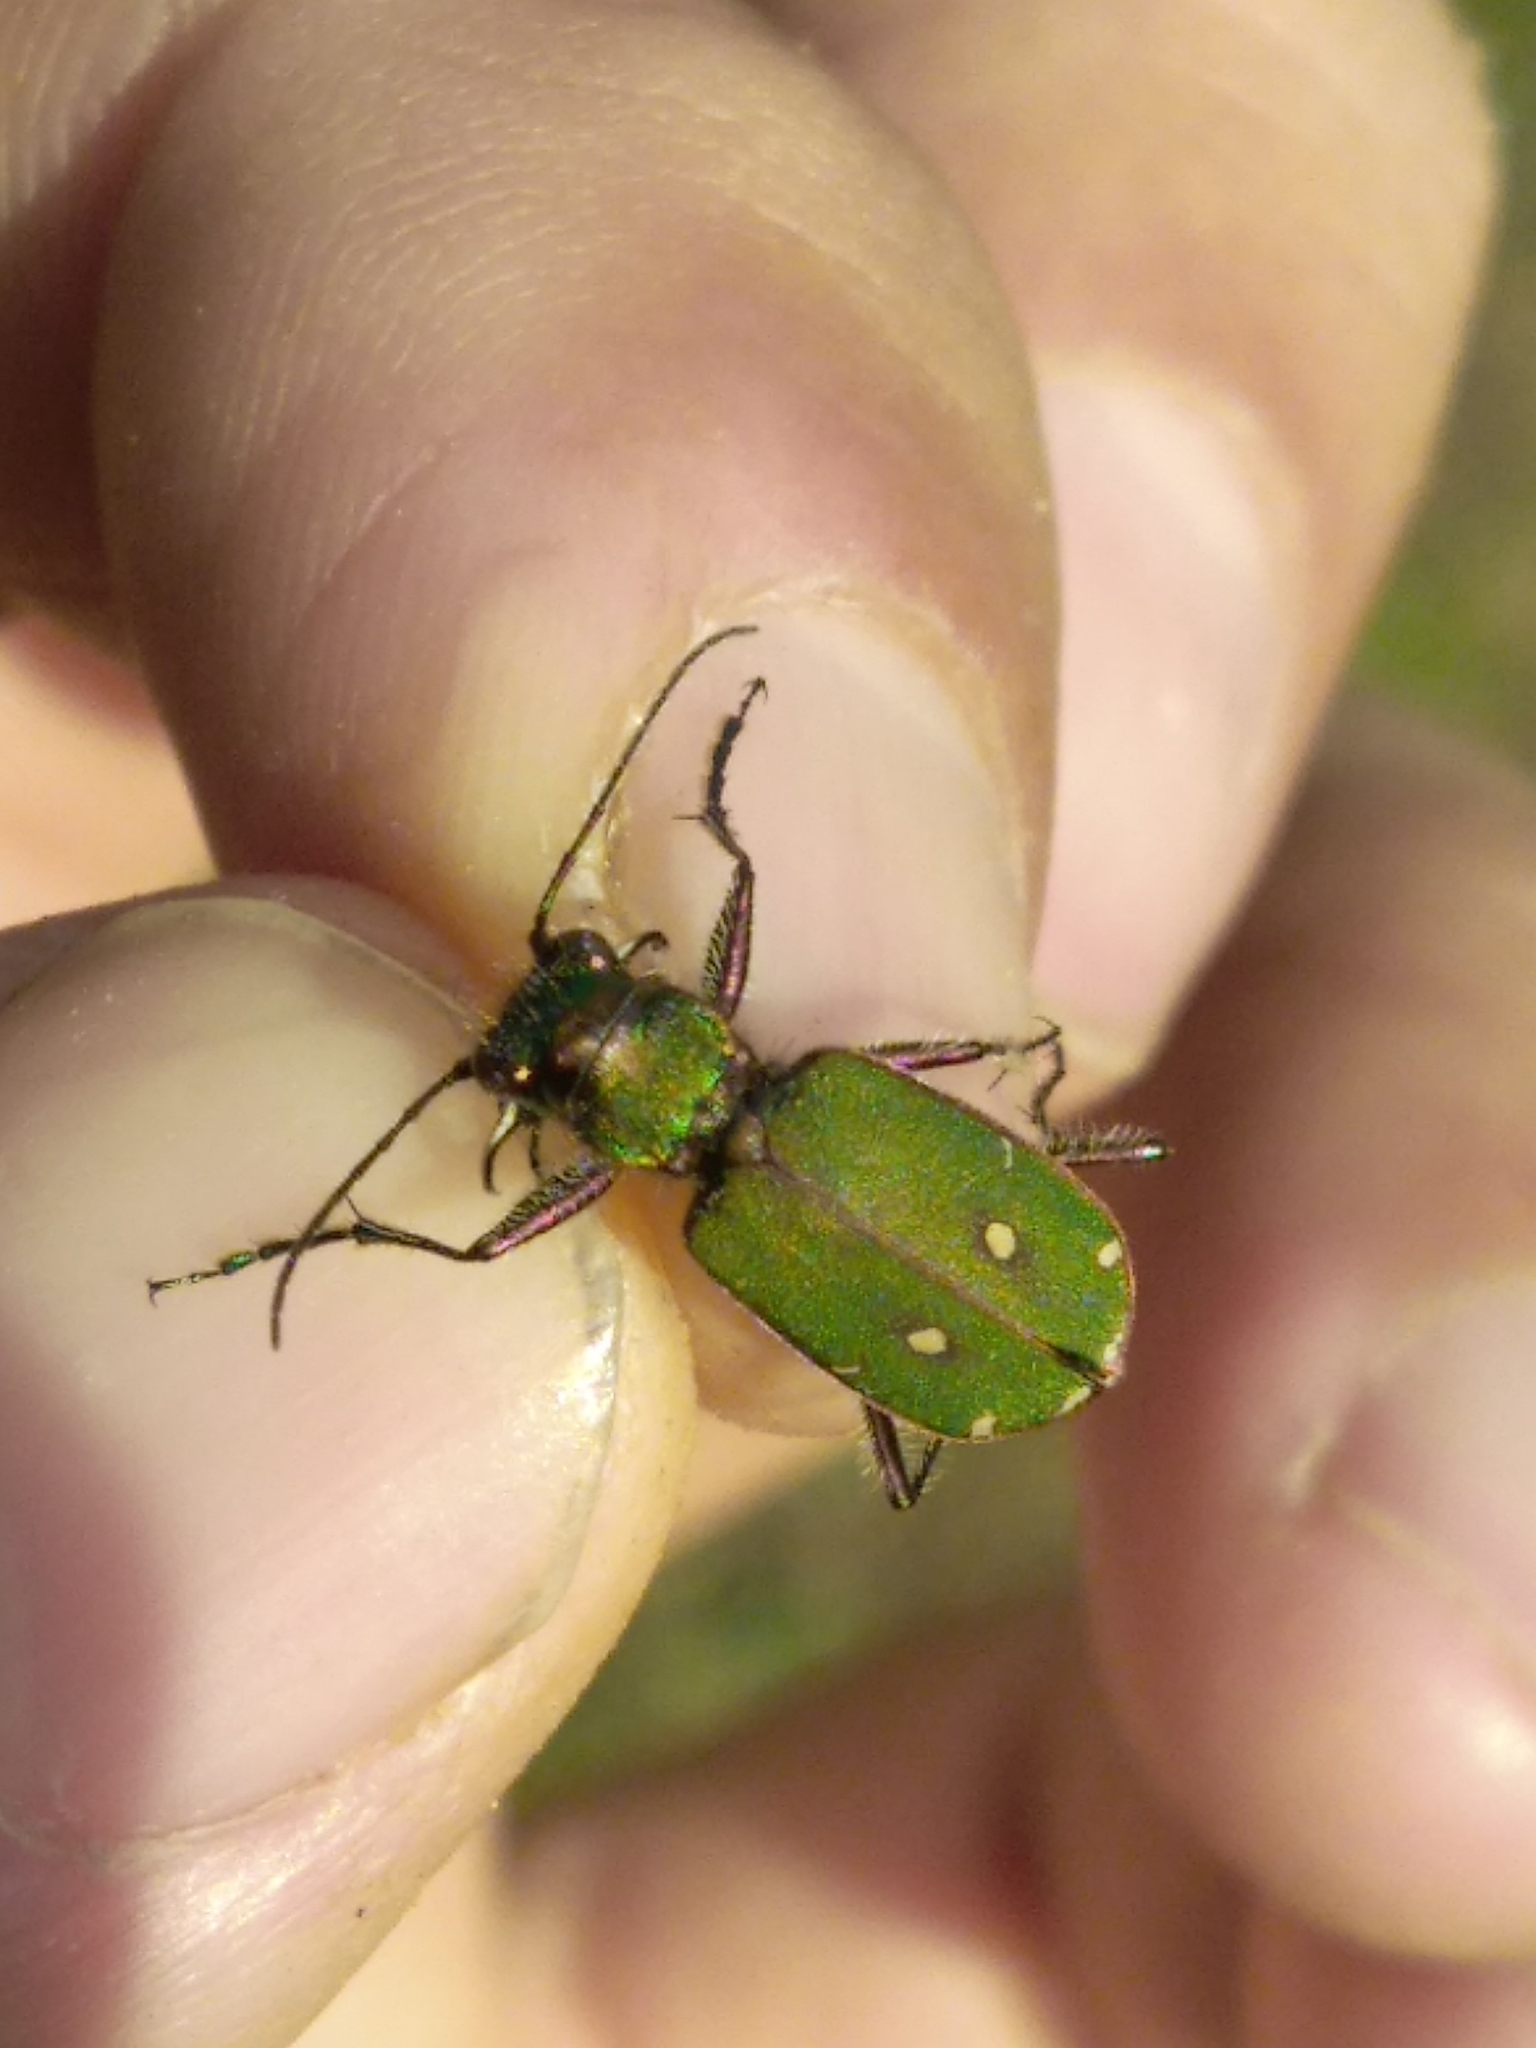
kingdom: Animalia
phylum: Arthropoda
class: Insecta
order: Coleoptera
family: Carabidae
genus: Cicindela
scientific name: Cicindela campestris
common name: Common tiger beetle
